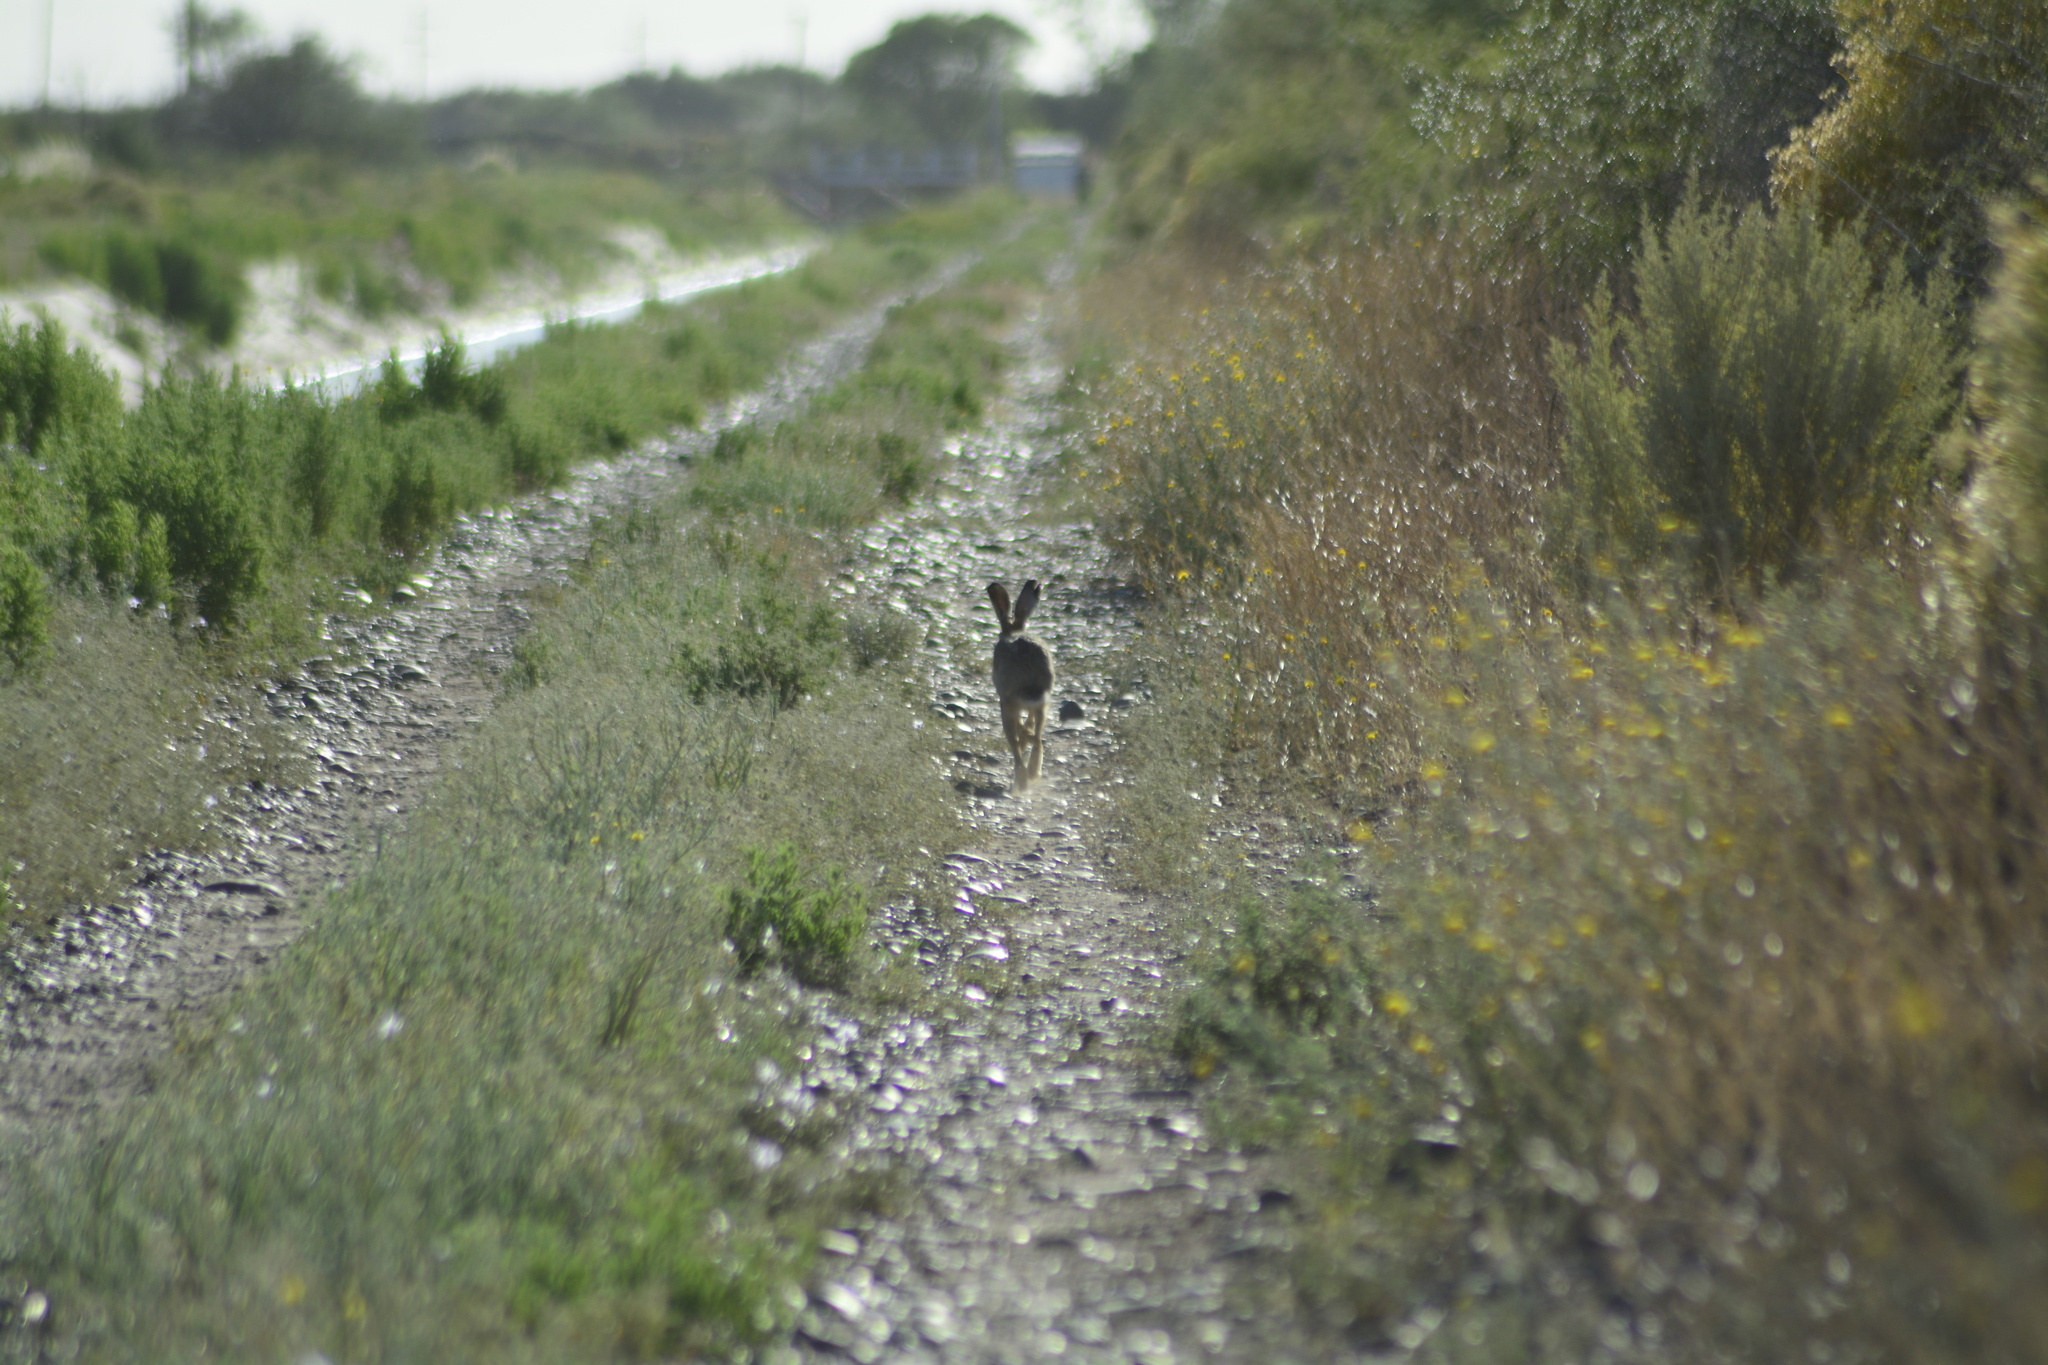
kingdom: Animalia
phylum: Chordata
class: Mammalia
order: Lagomorpha
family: Leporidae
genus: Lepus
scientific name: Lepus europaeus
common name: European hare
